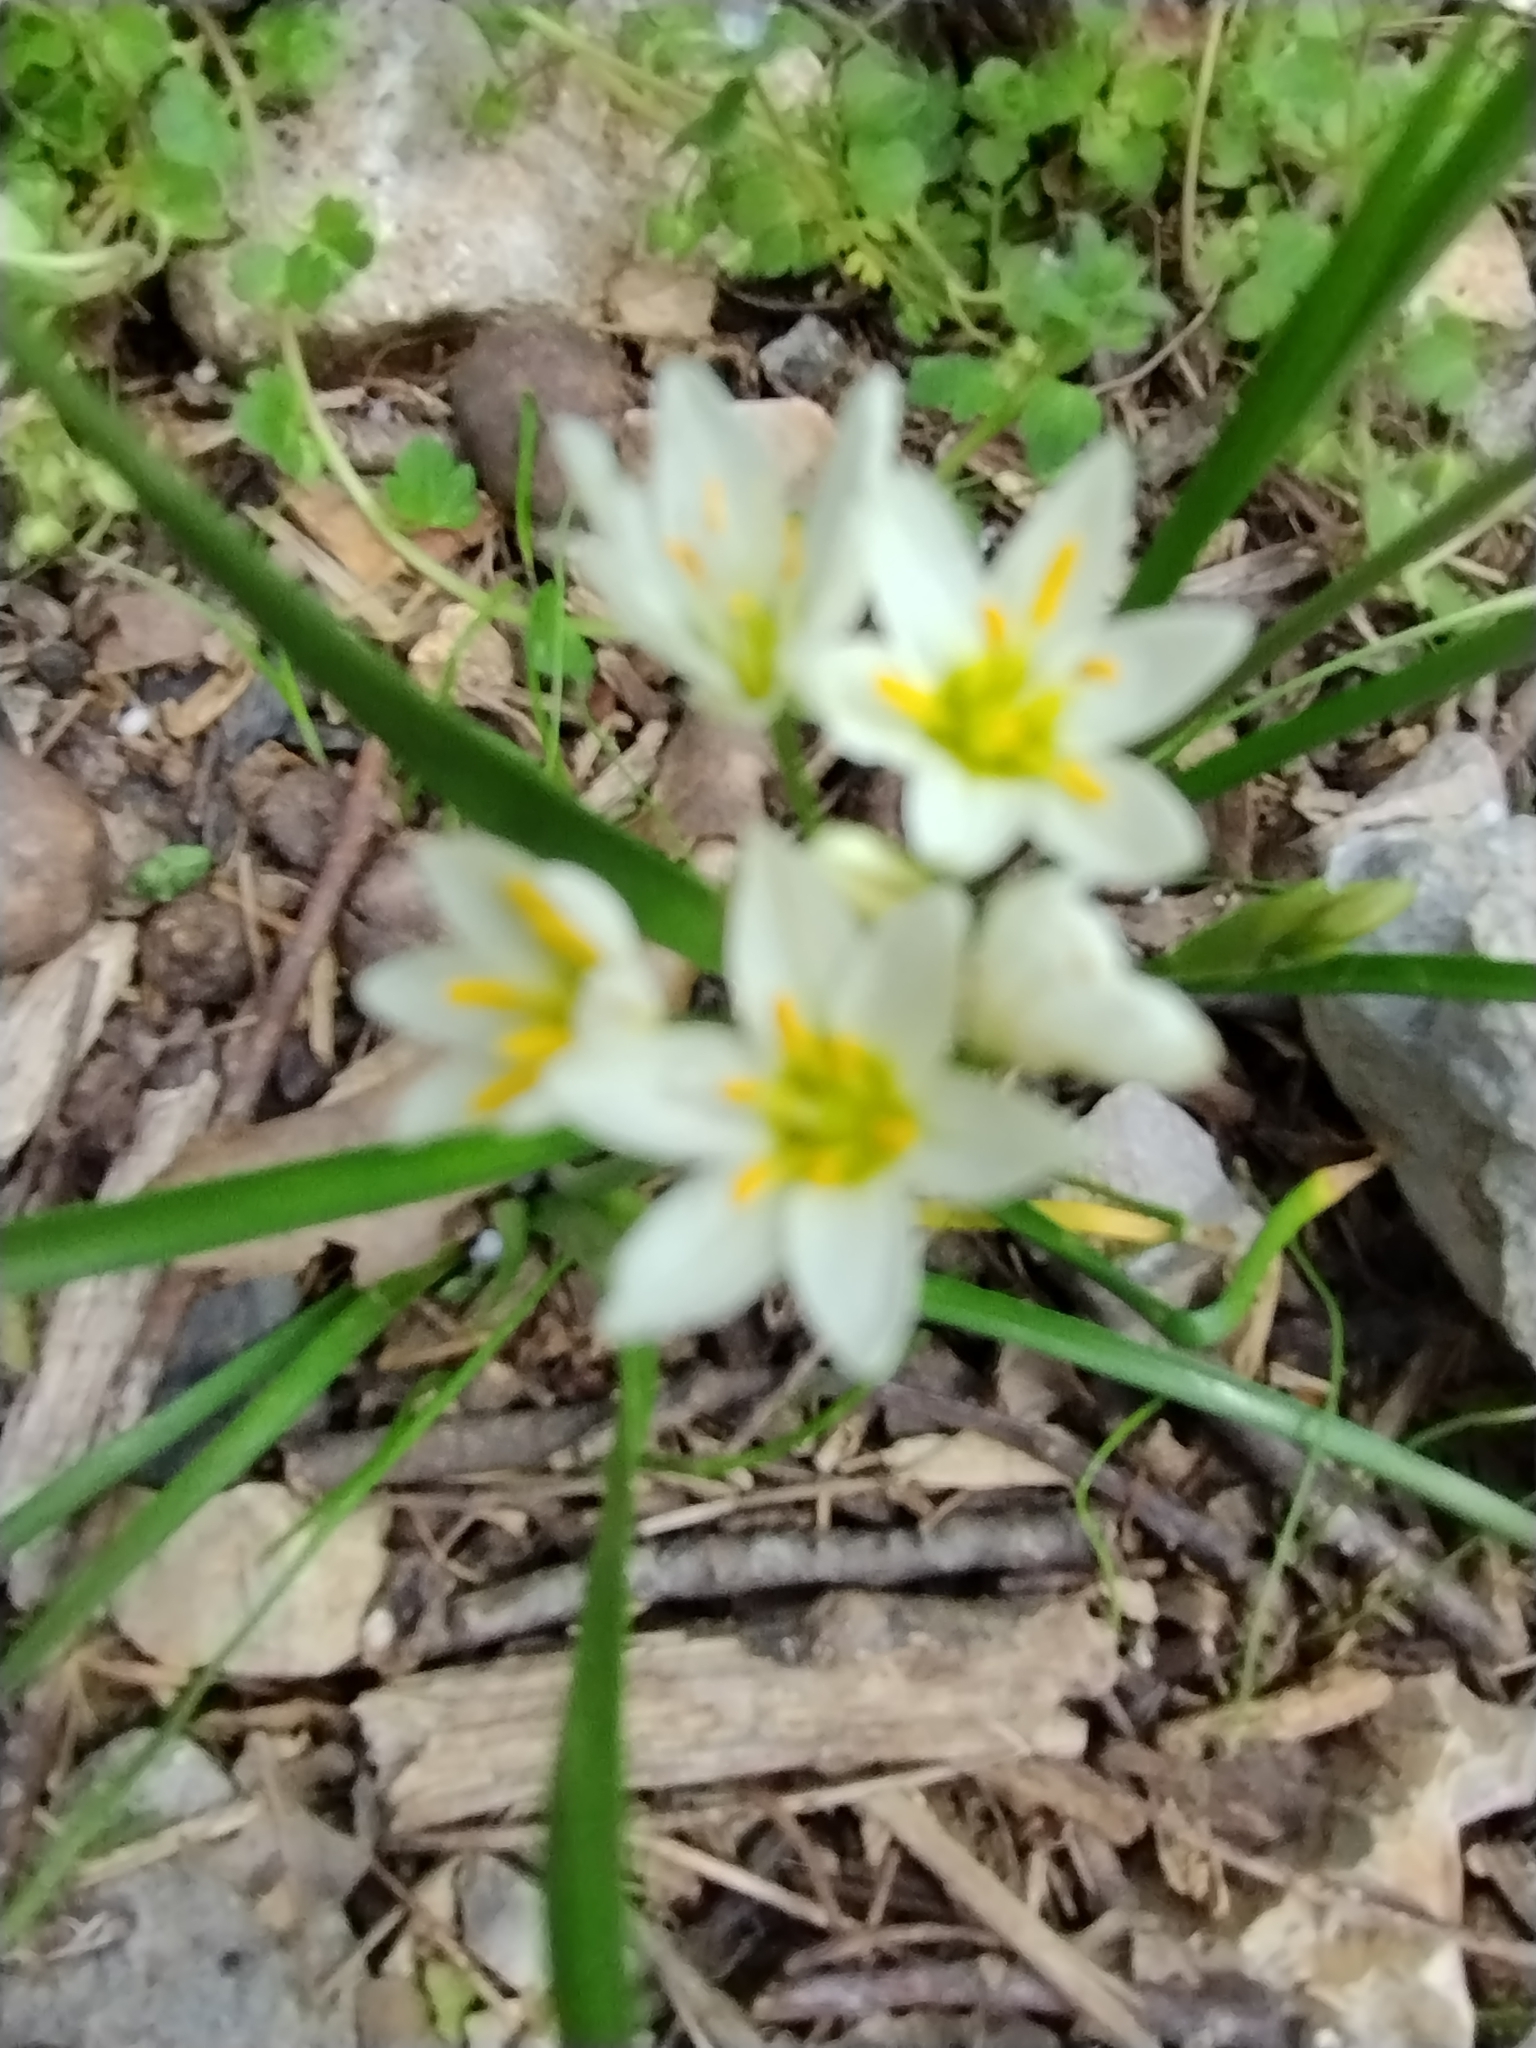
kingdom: Plantae
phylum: Tracheophyta
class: Liliopsida
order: Asparagales
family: Amaryllidaceae
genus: Nothoscordum
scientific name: Nothoscordum bivalve
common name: Crow-poison
